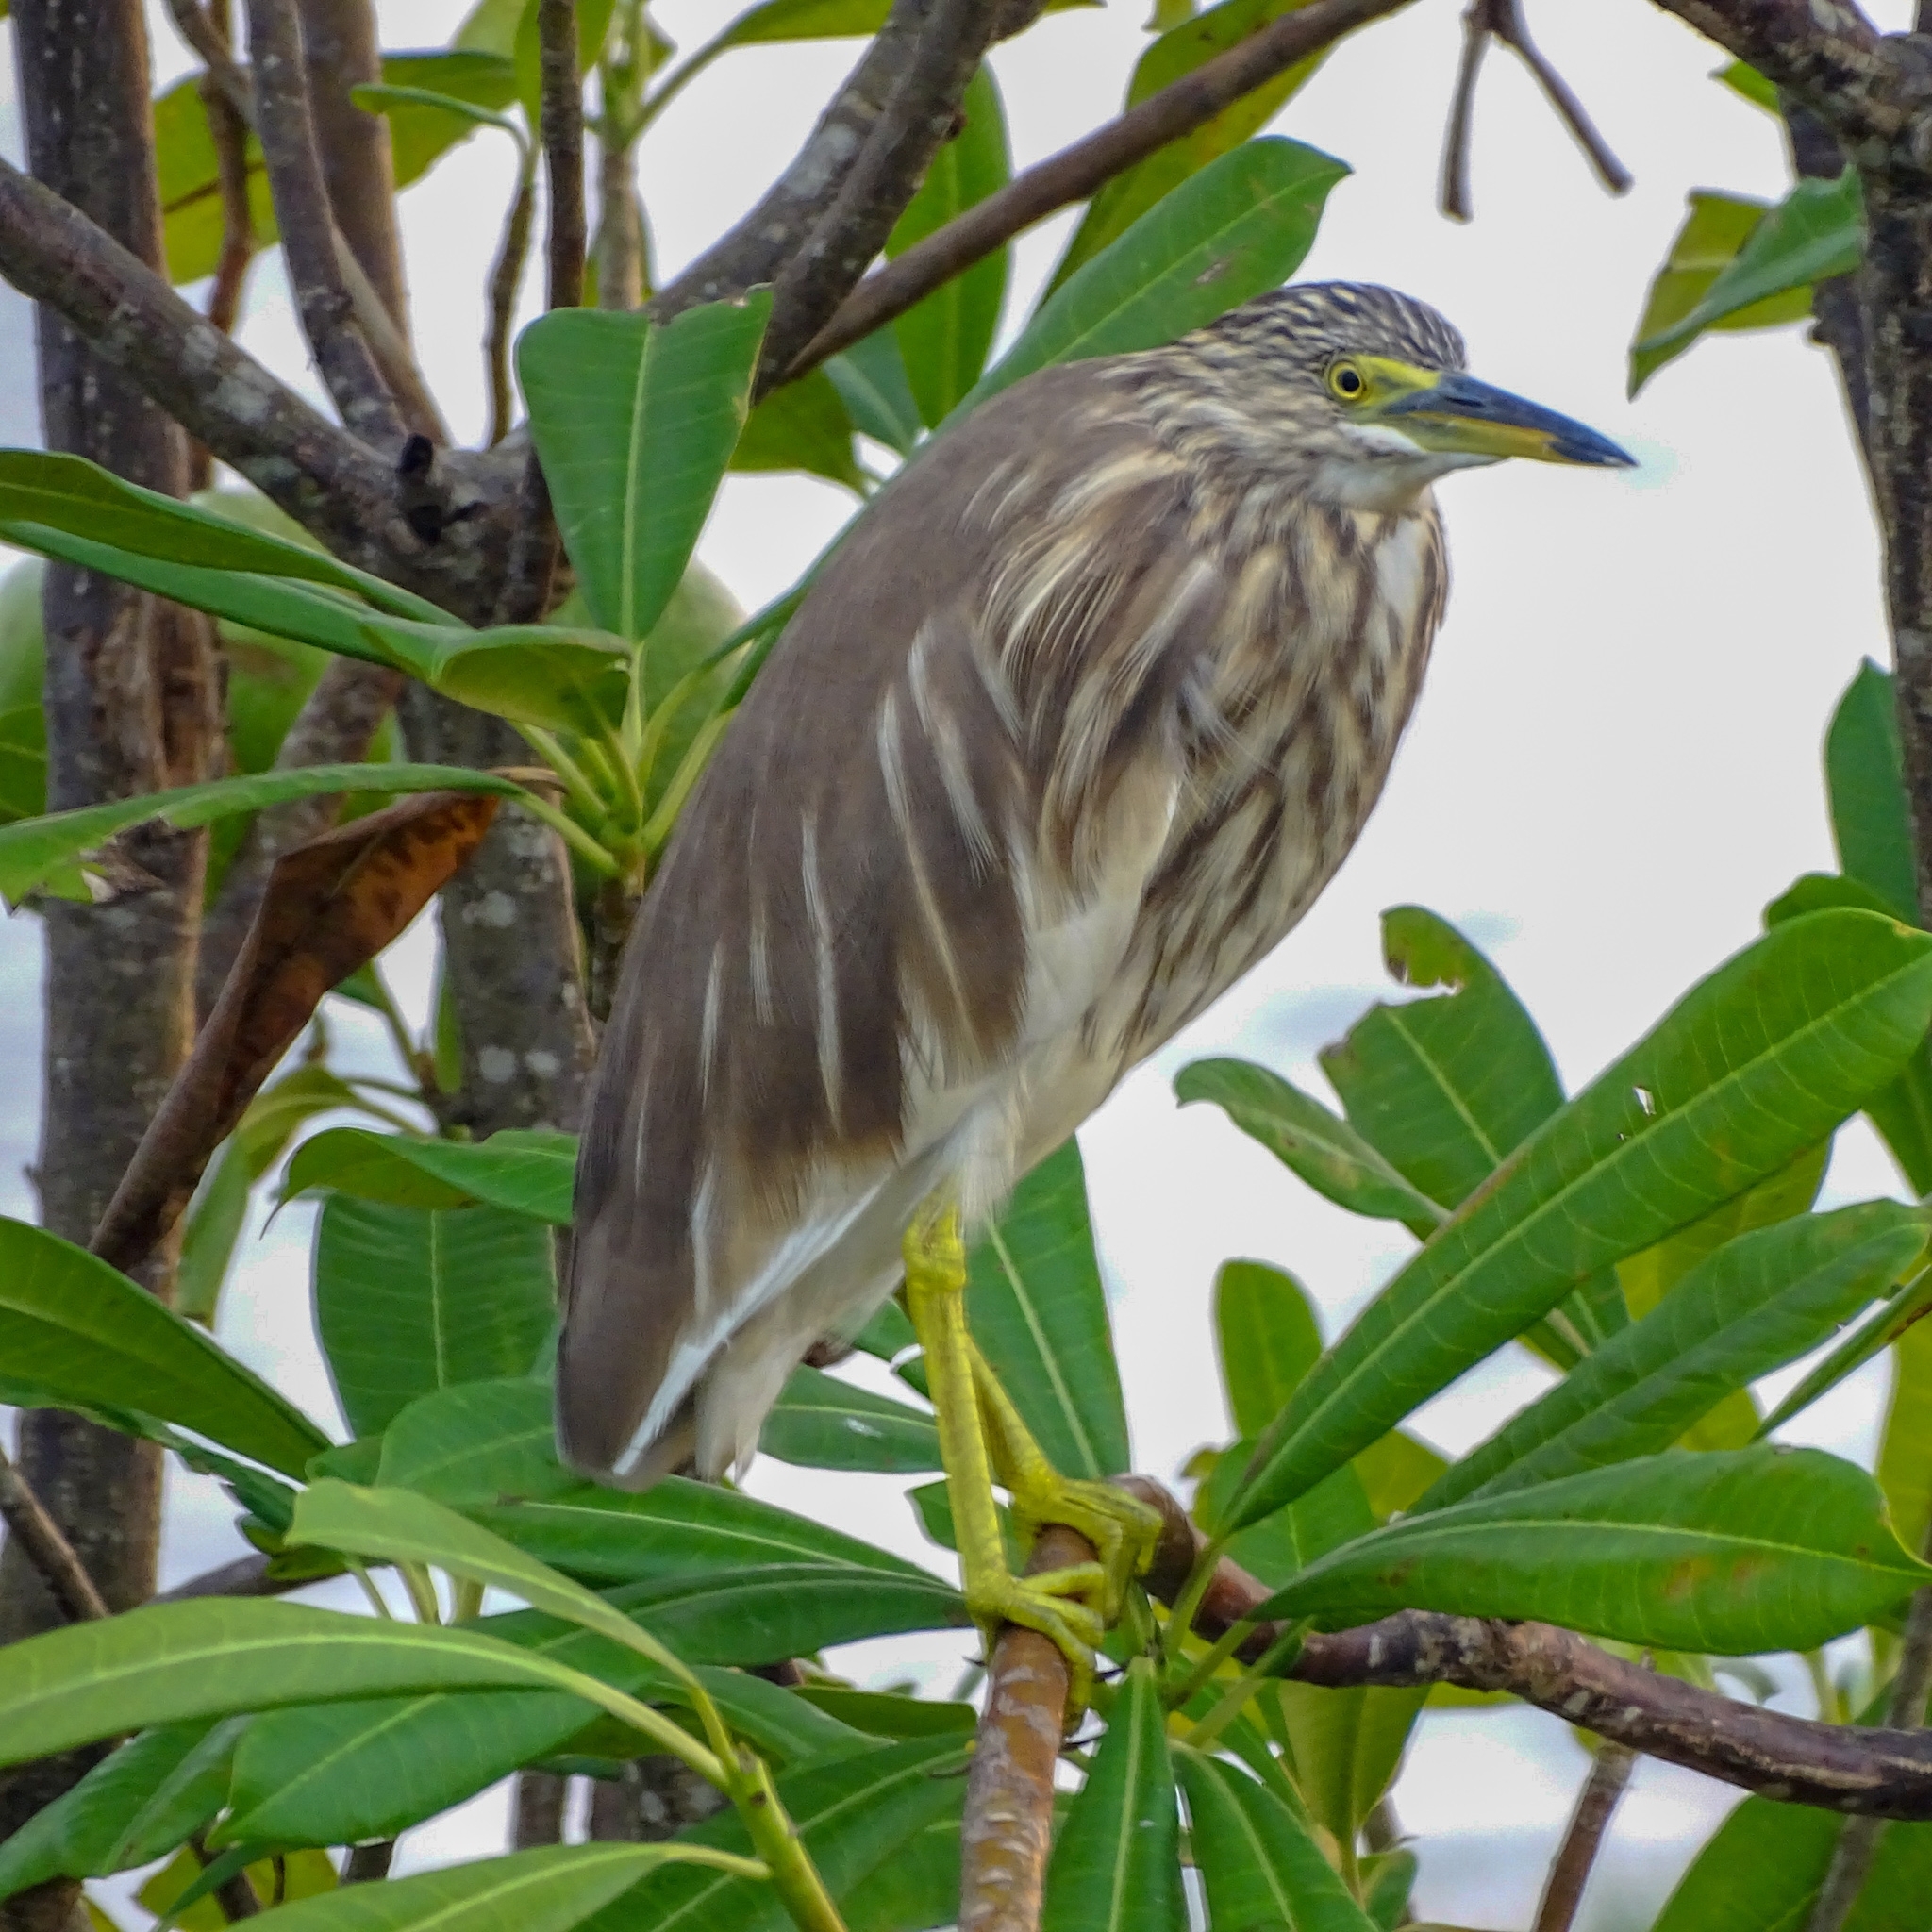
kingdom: Animalia
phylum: Chordata
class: Aves
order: Pelecaniformes
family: Ardeidae
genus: Ardeola
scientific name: Ardeola grayii
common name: Indian pond heron
